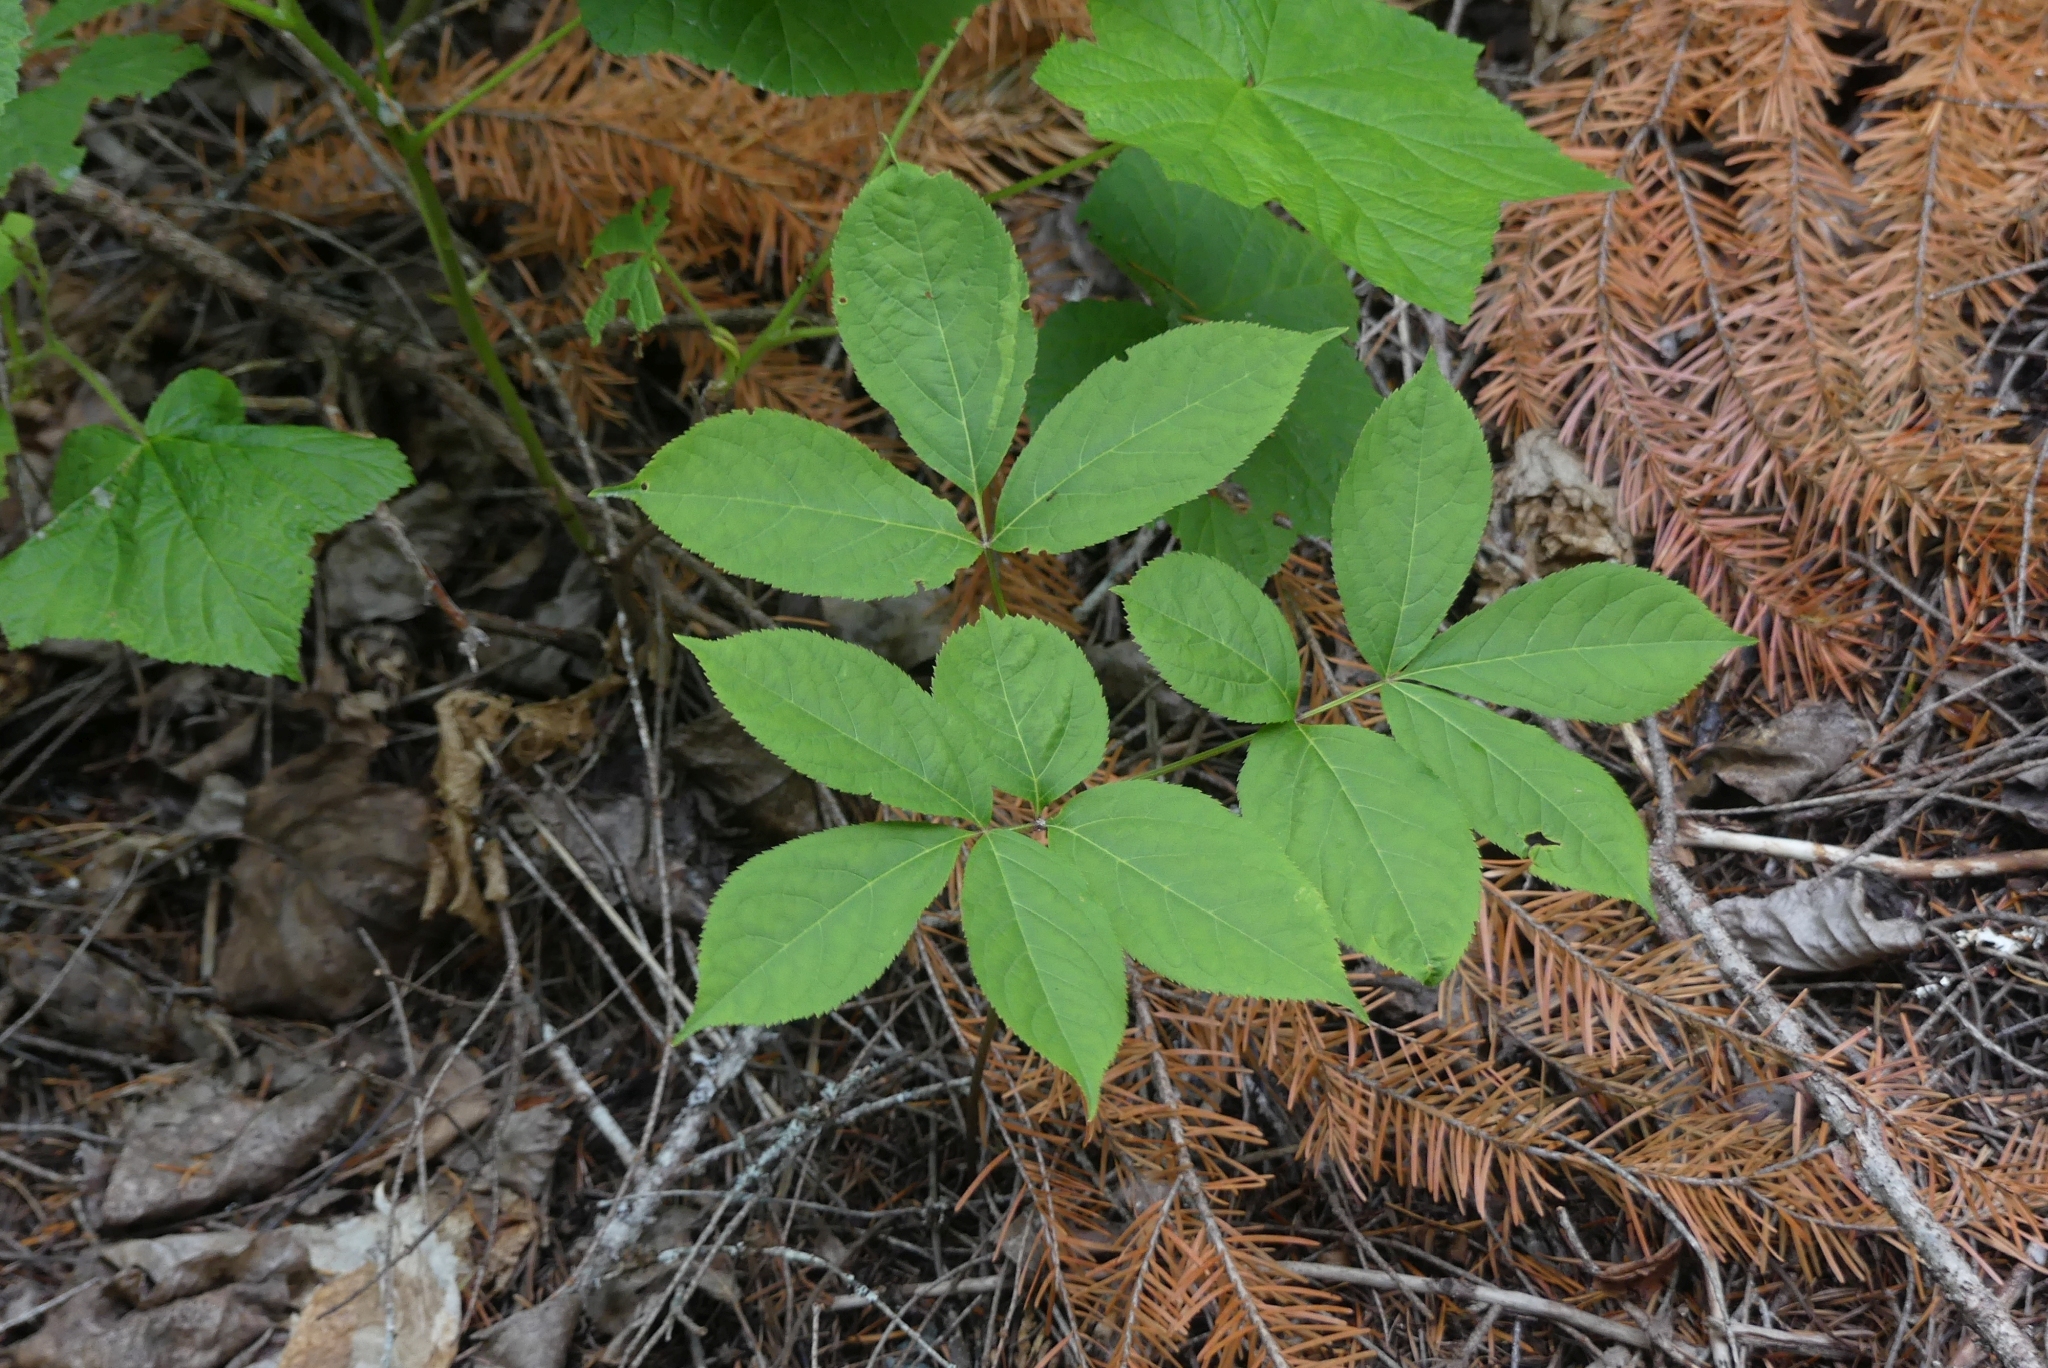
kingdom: Plantae
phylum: Tracheophyta
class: Magnoliopsida
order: Apiales
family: Araliaceae
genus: Aralia
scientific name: Aralia nudicaulis
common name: Wild sarsaparilla
